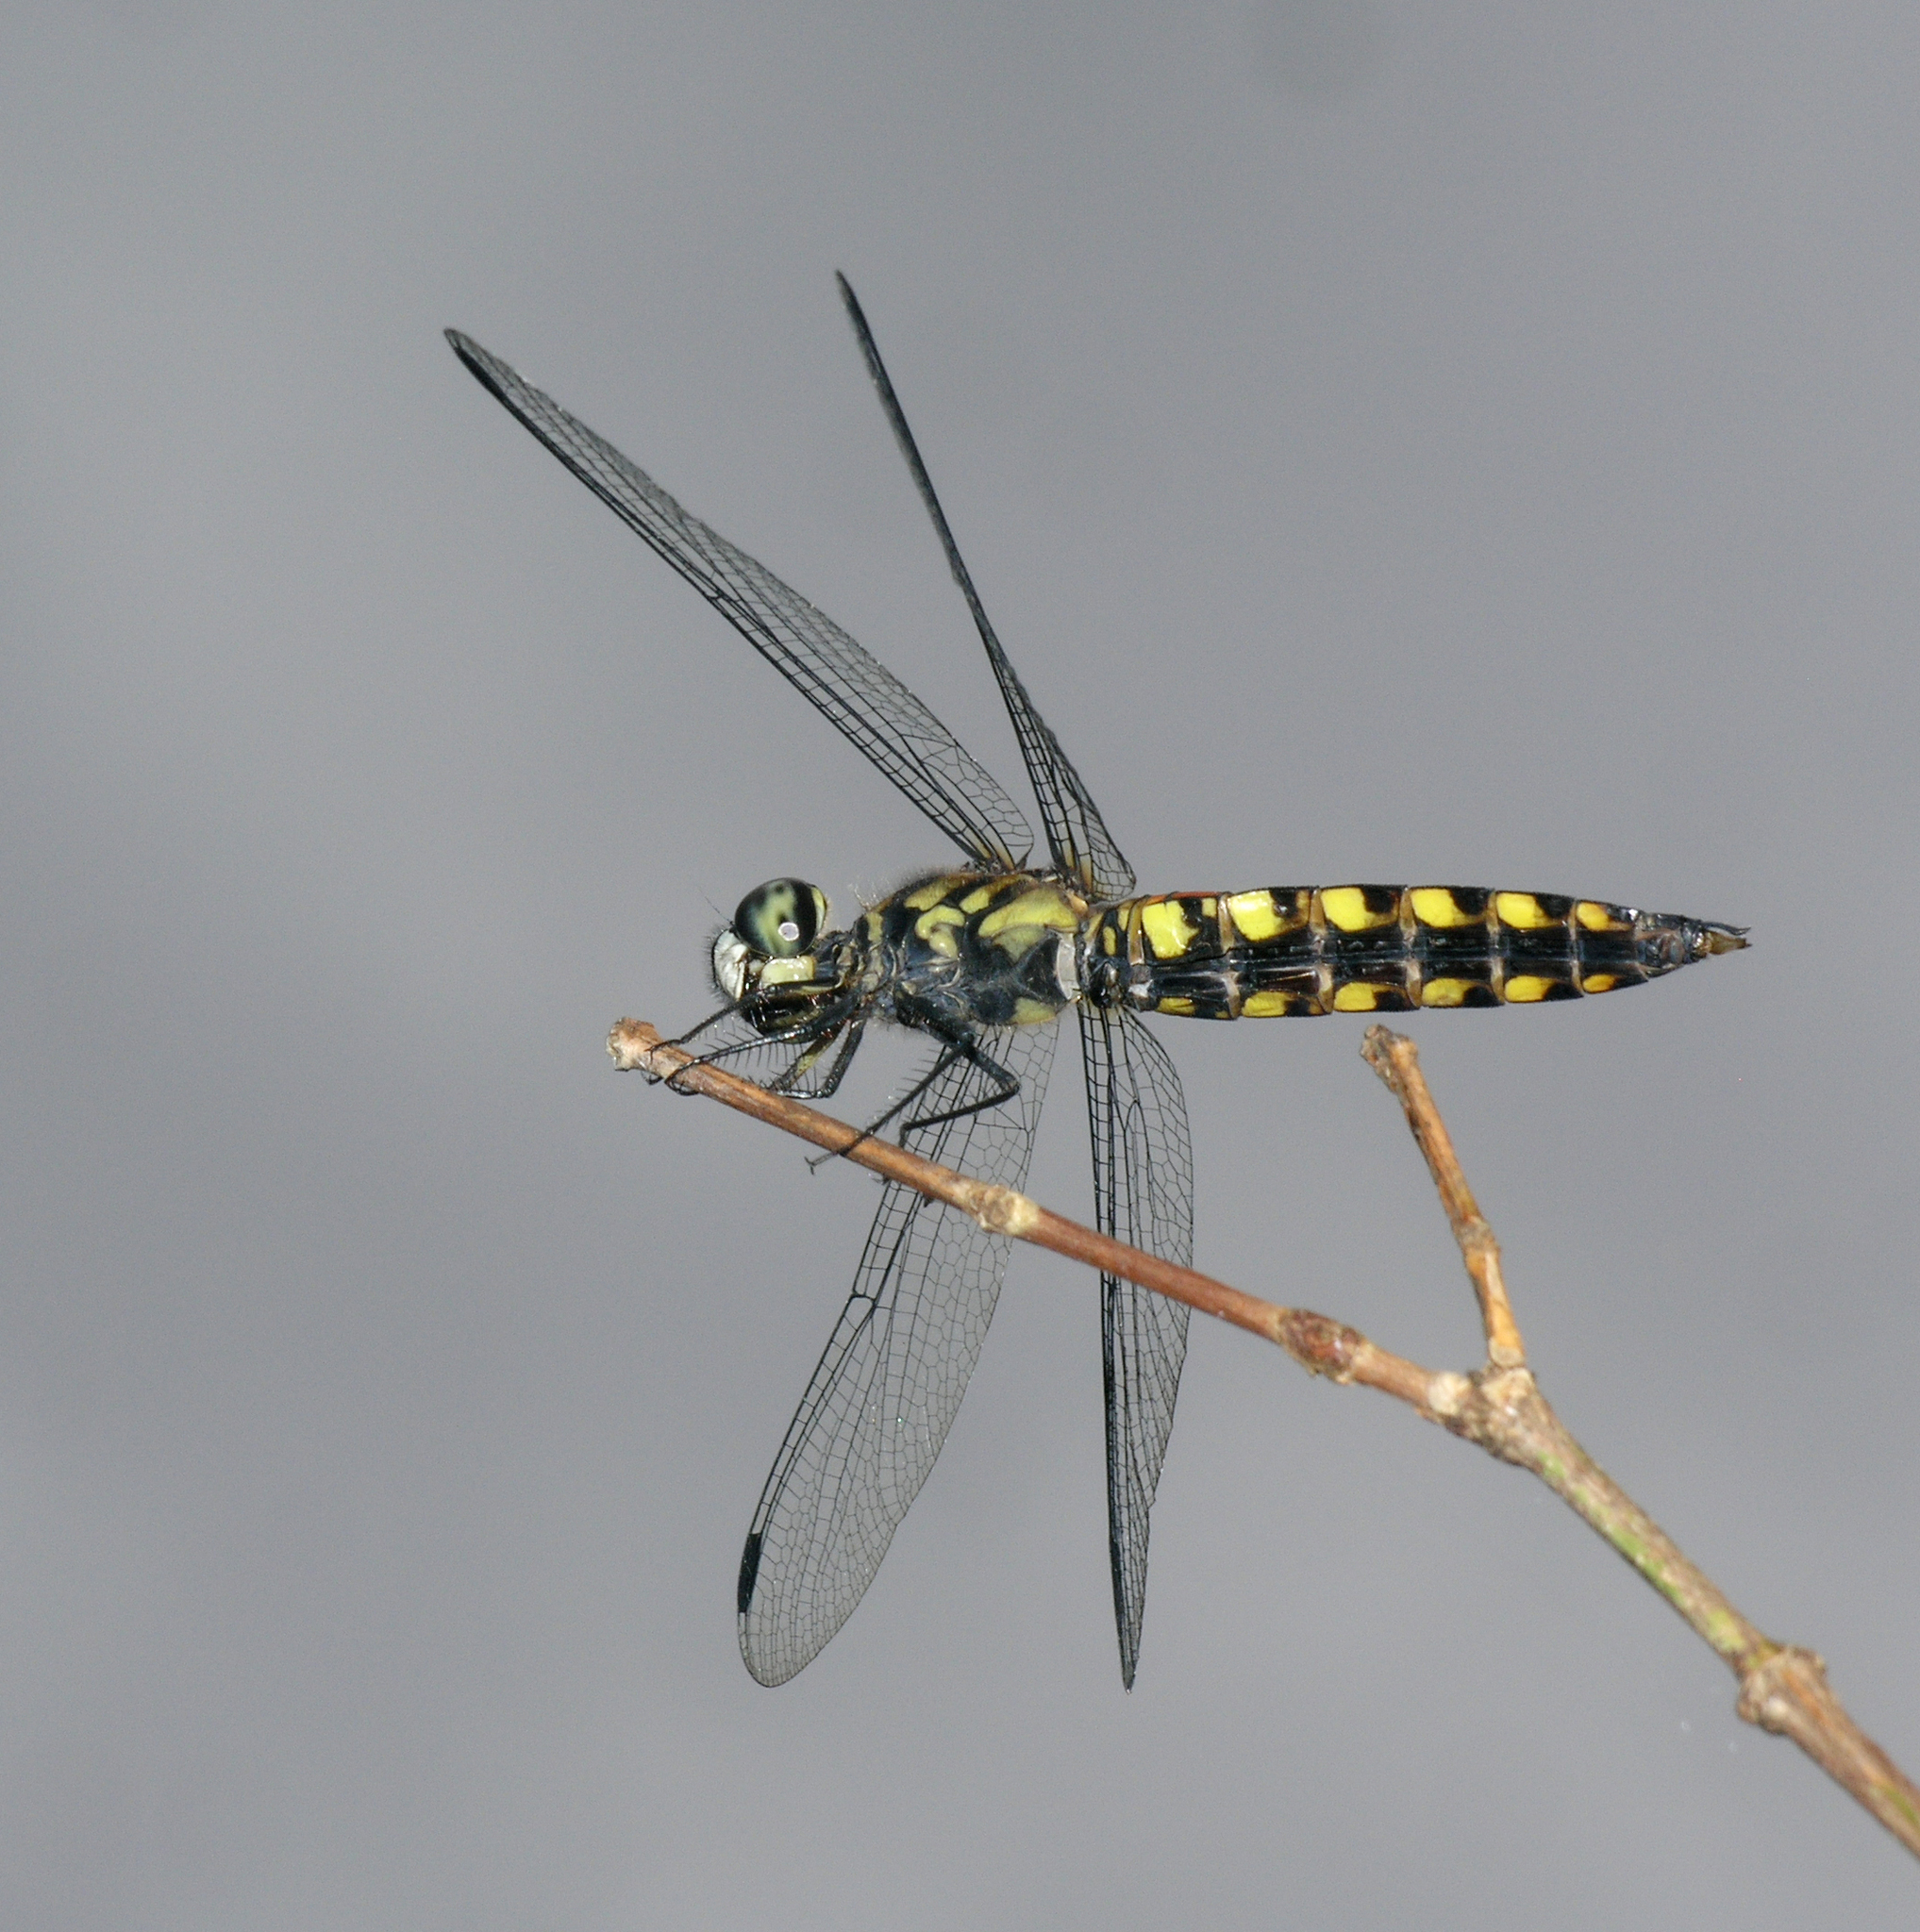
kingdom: Animalia
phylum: Arthropoda
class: Insecta
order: Odonata
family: Libellulidae
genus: Lyriothemis
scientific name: Lyriothemis elegantissima
